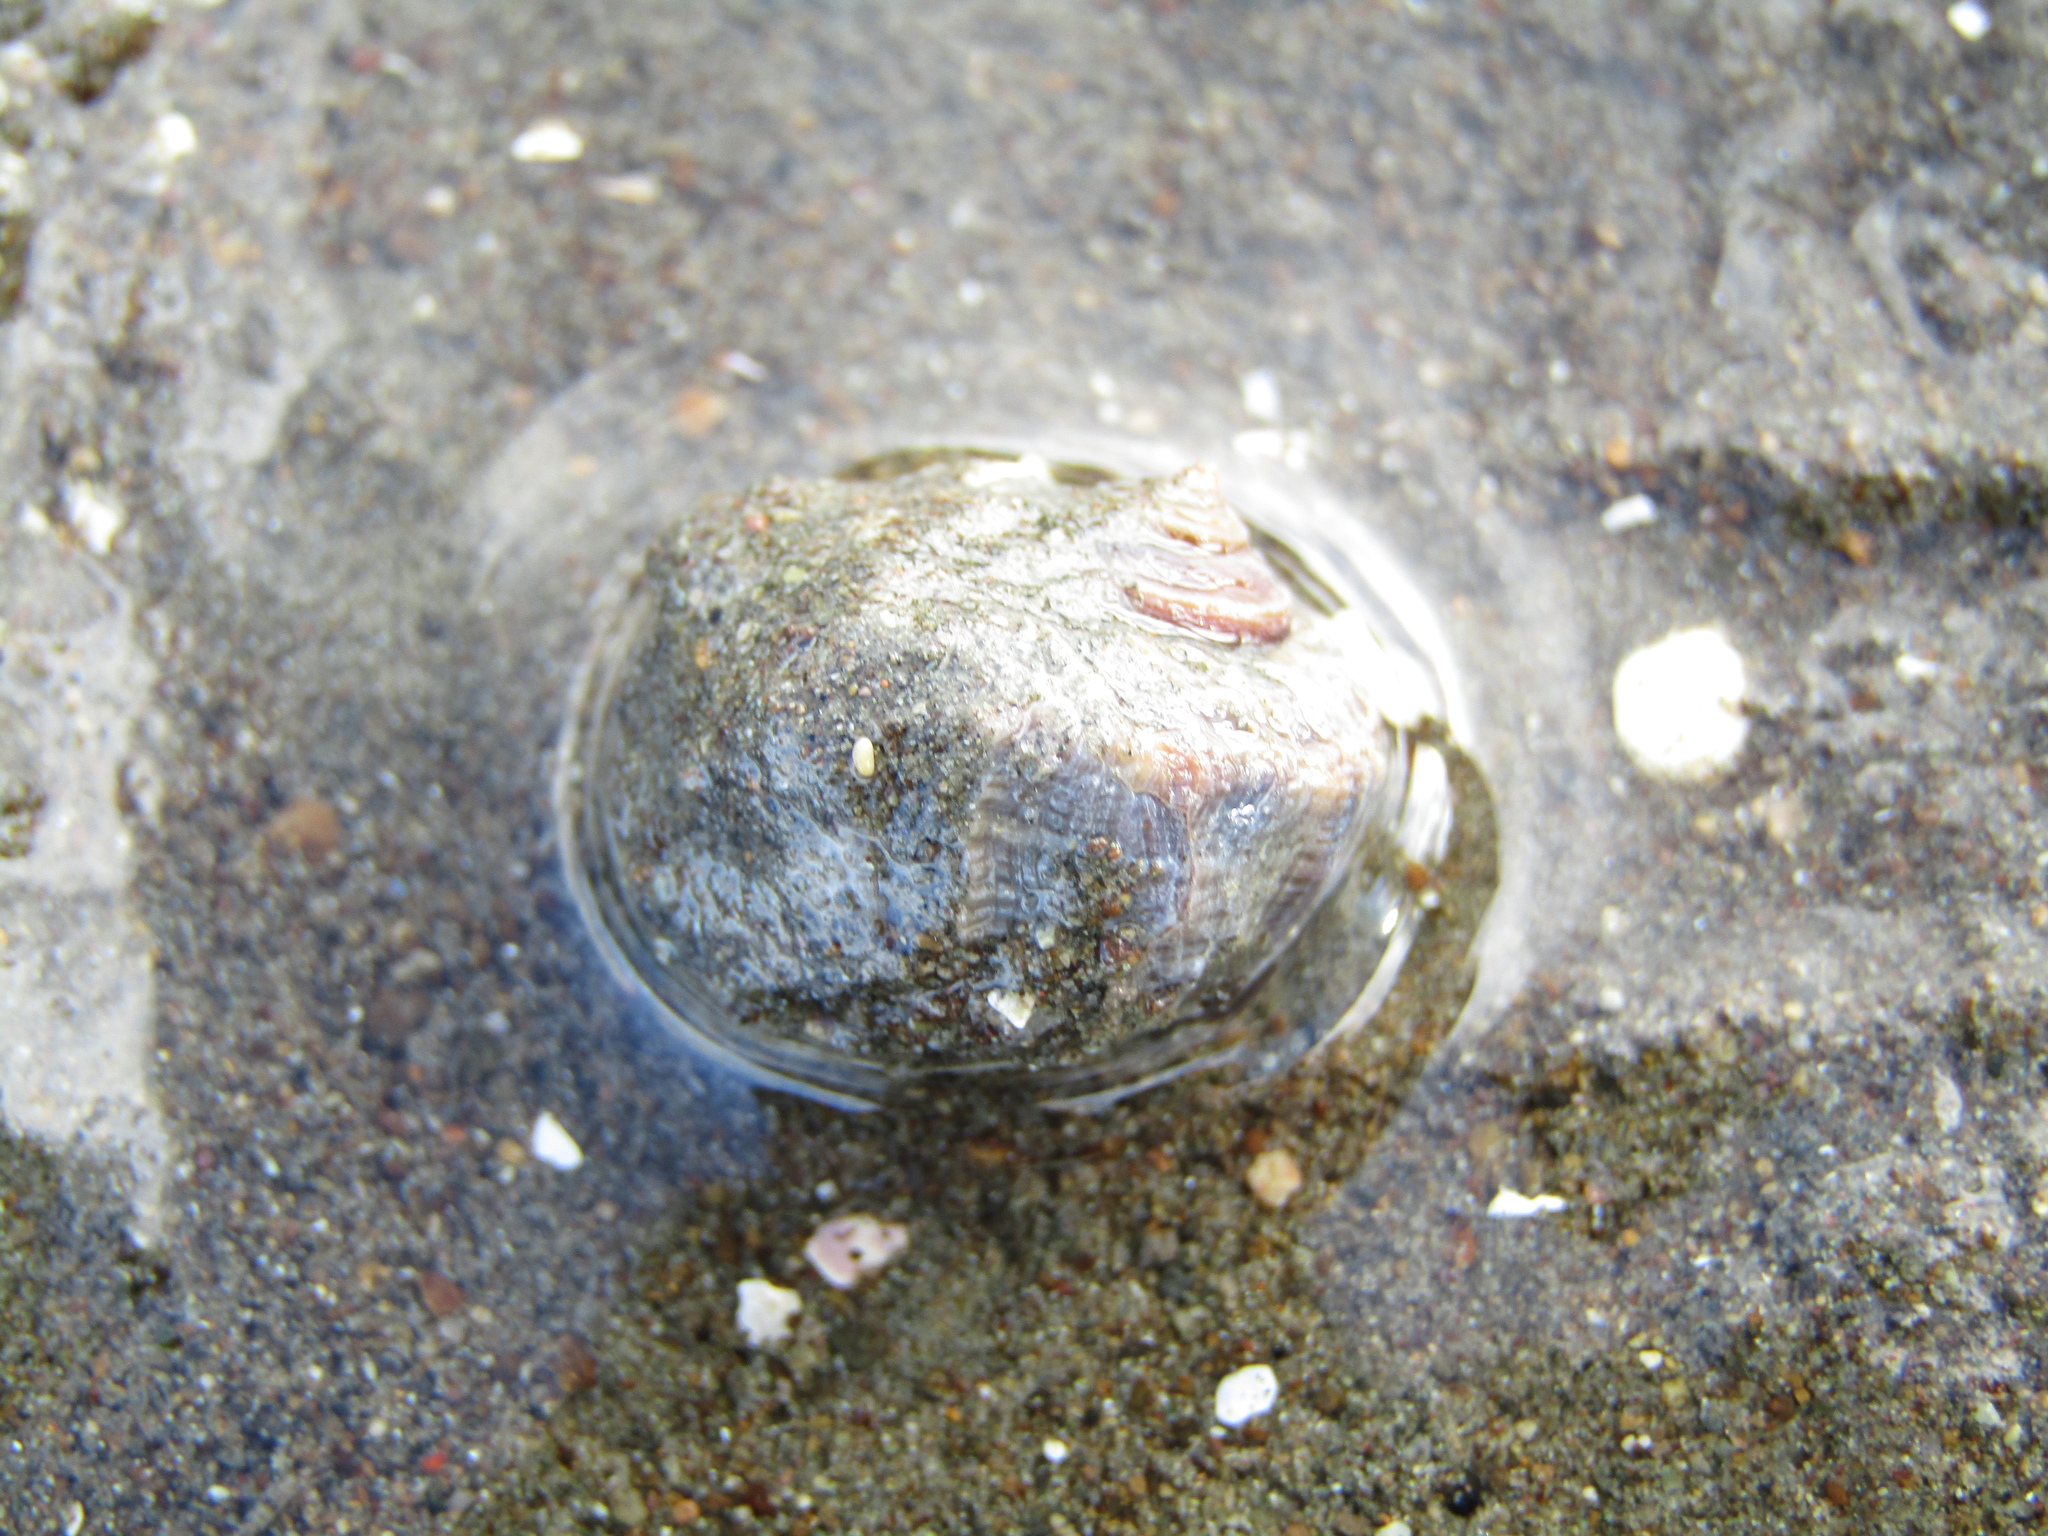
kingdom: Animalia
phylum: Mollusca
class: Gastropoda
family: Amphibolidae
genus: Amphibola
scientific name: Amphibola crenata
